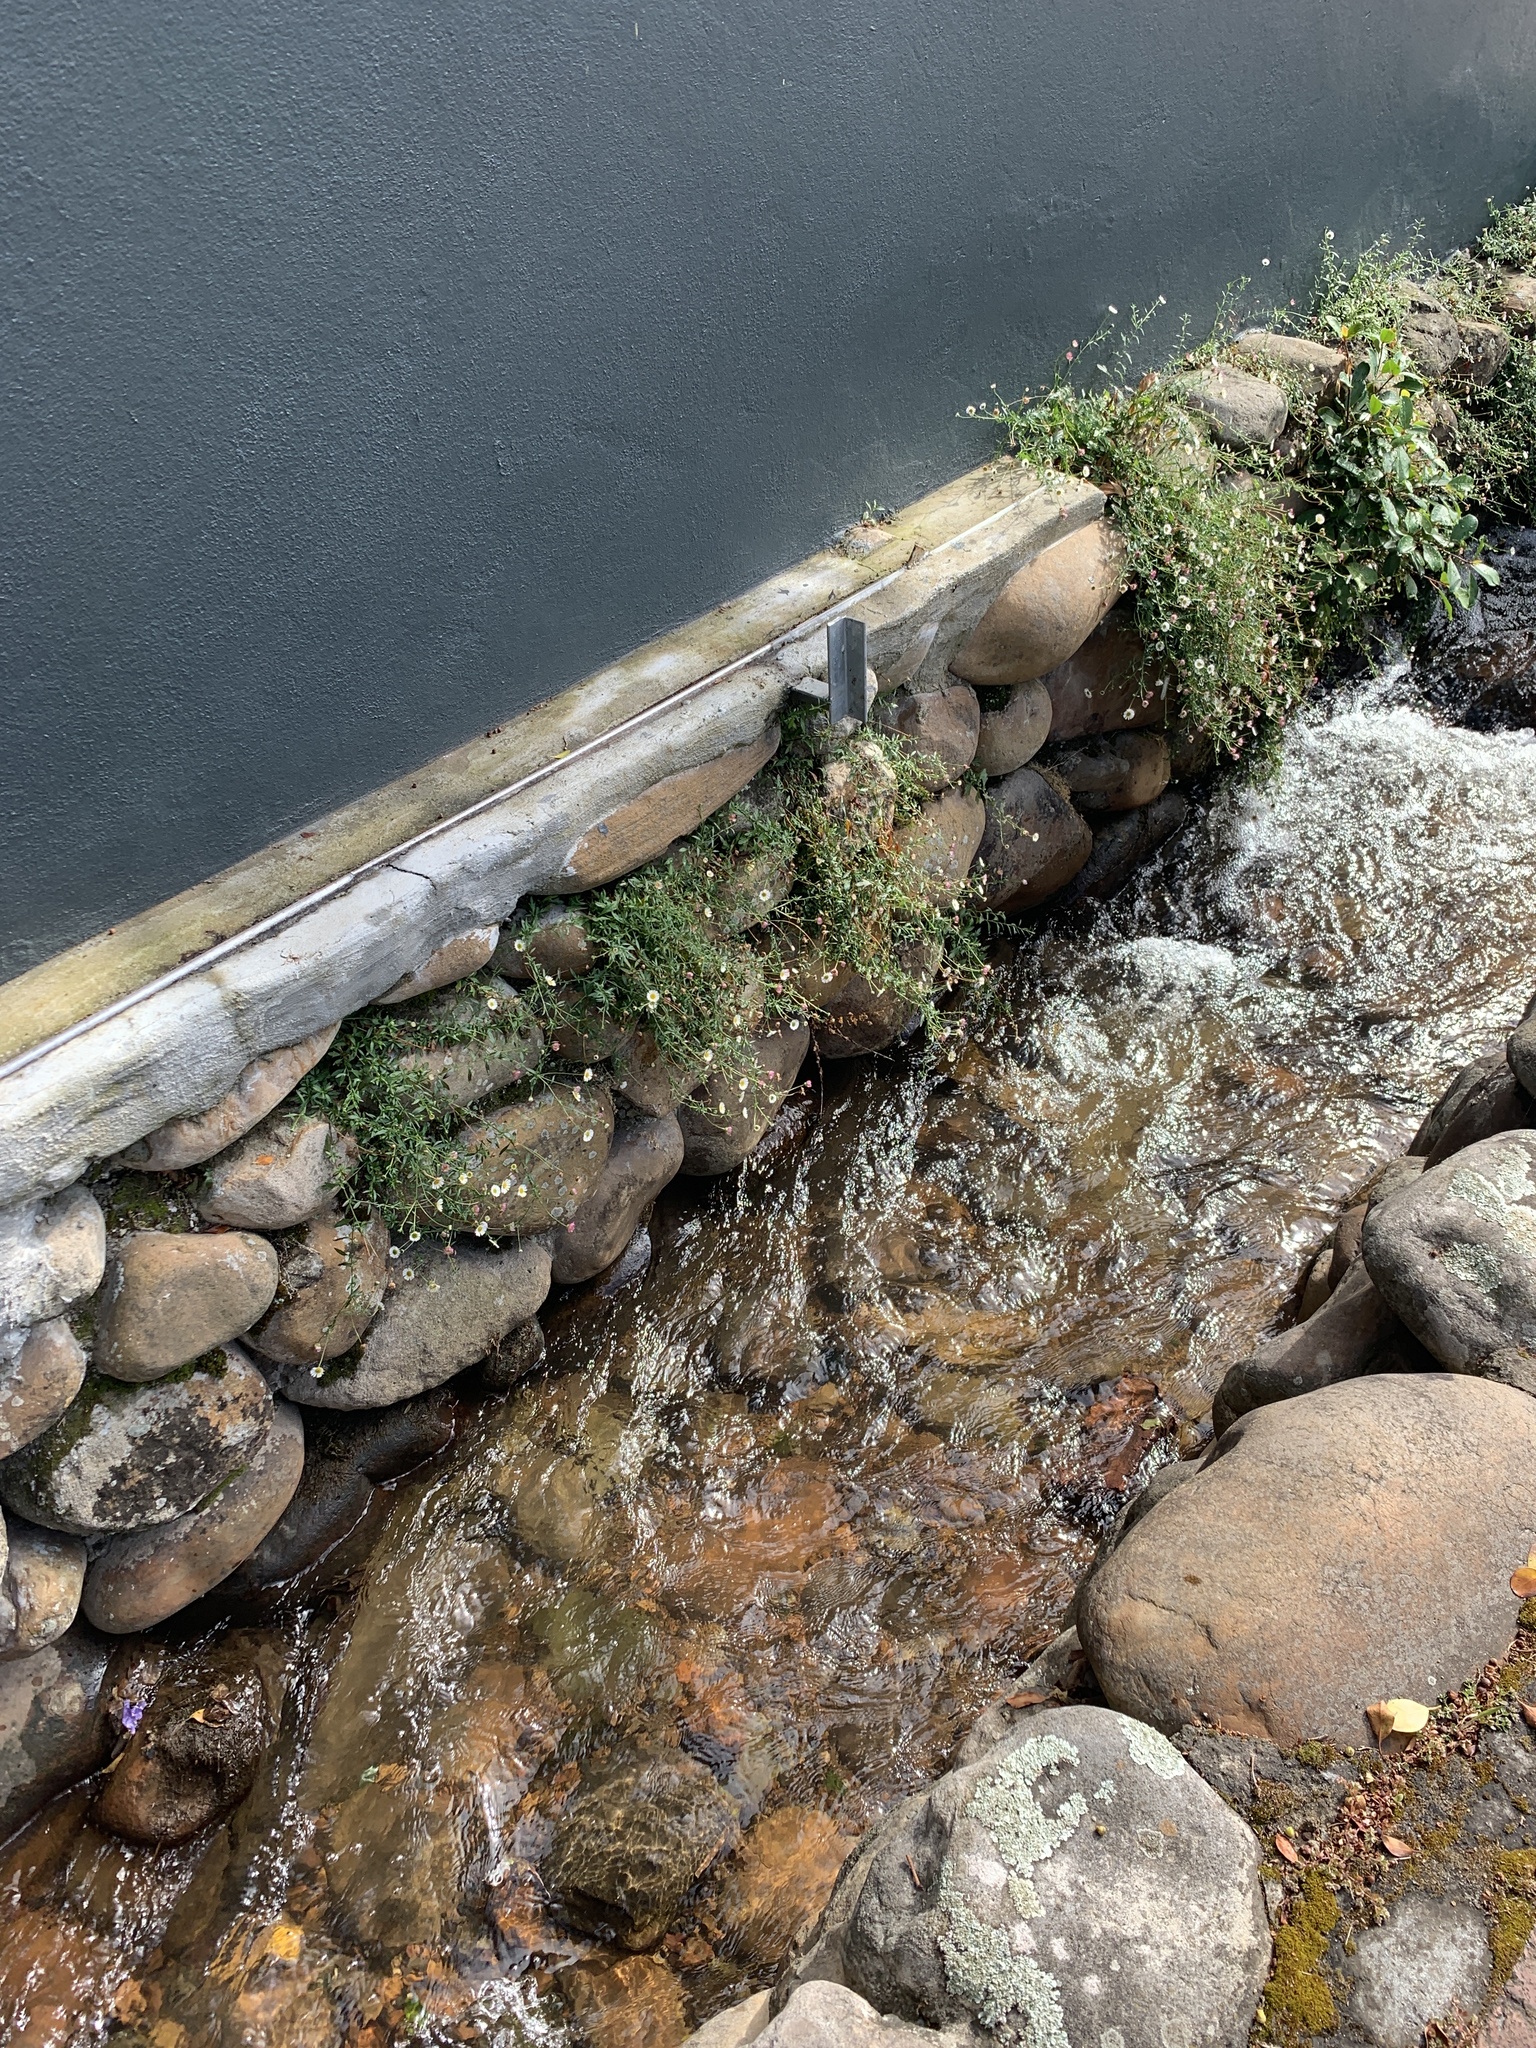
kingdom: Plantae
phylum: Tracheophyta
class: Magnoliopsida
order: Asterales
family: Asteraceae
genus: Erigeron
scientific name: Erigeron karvinskianus
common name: Mexican fleabane
